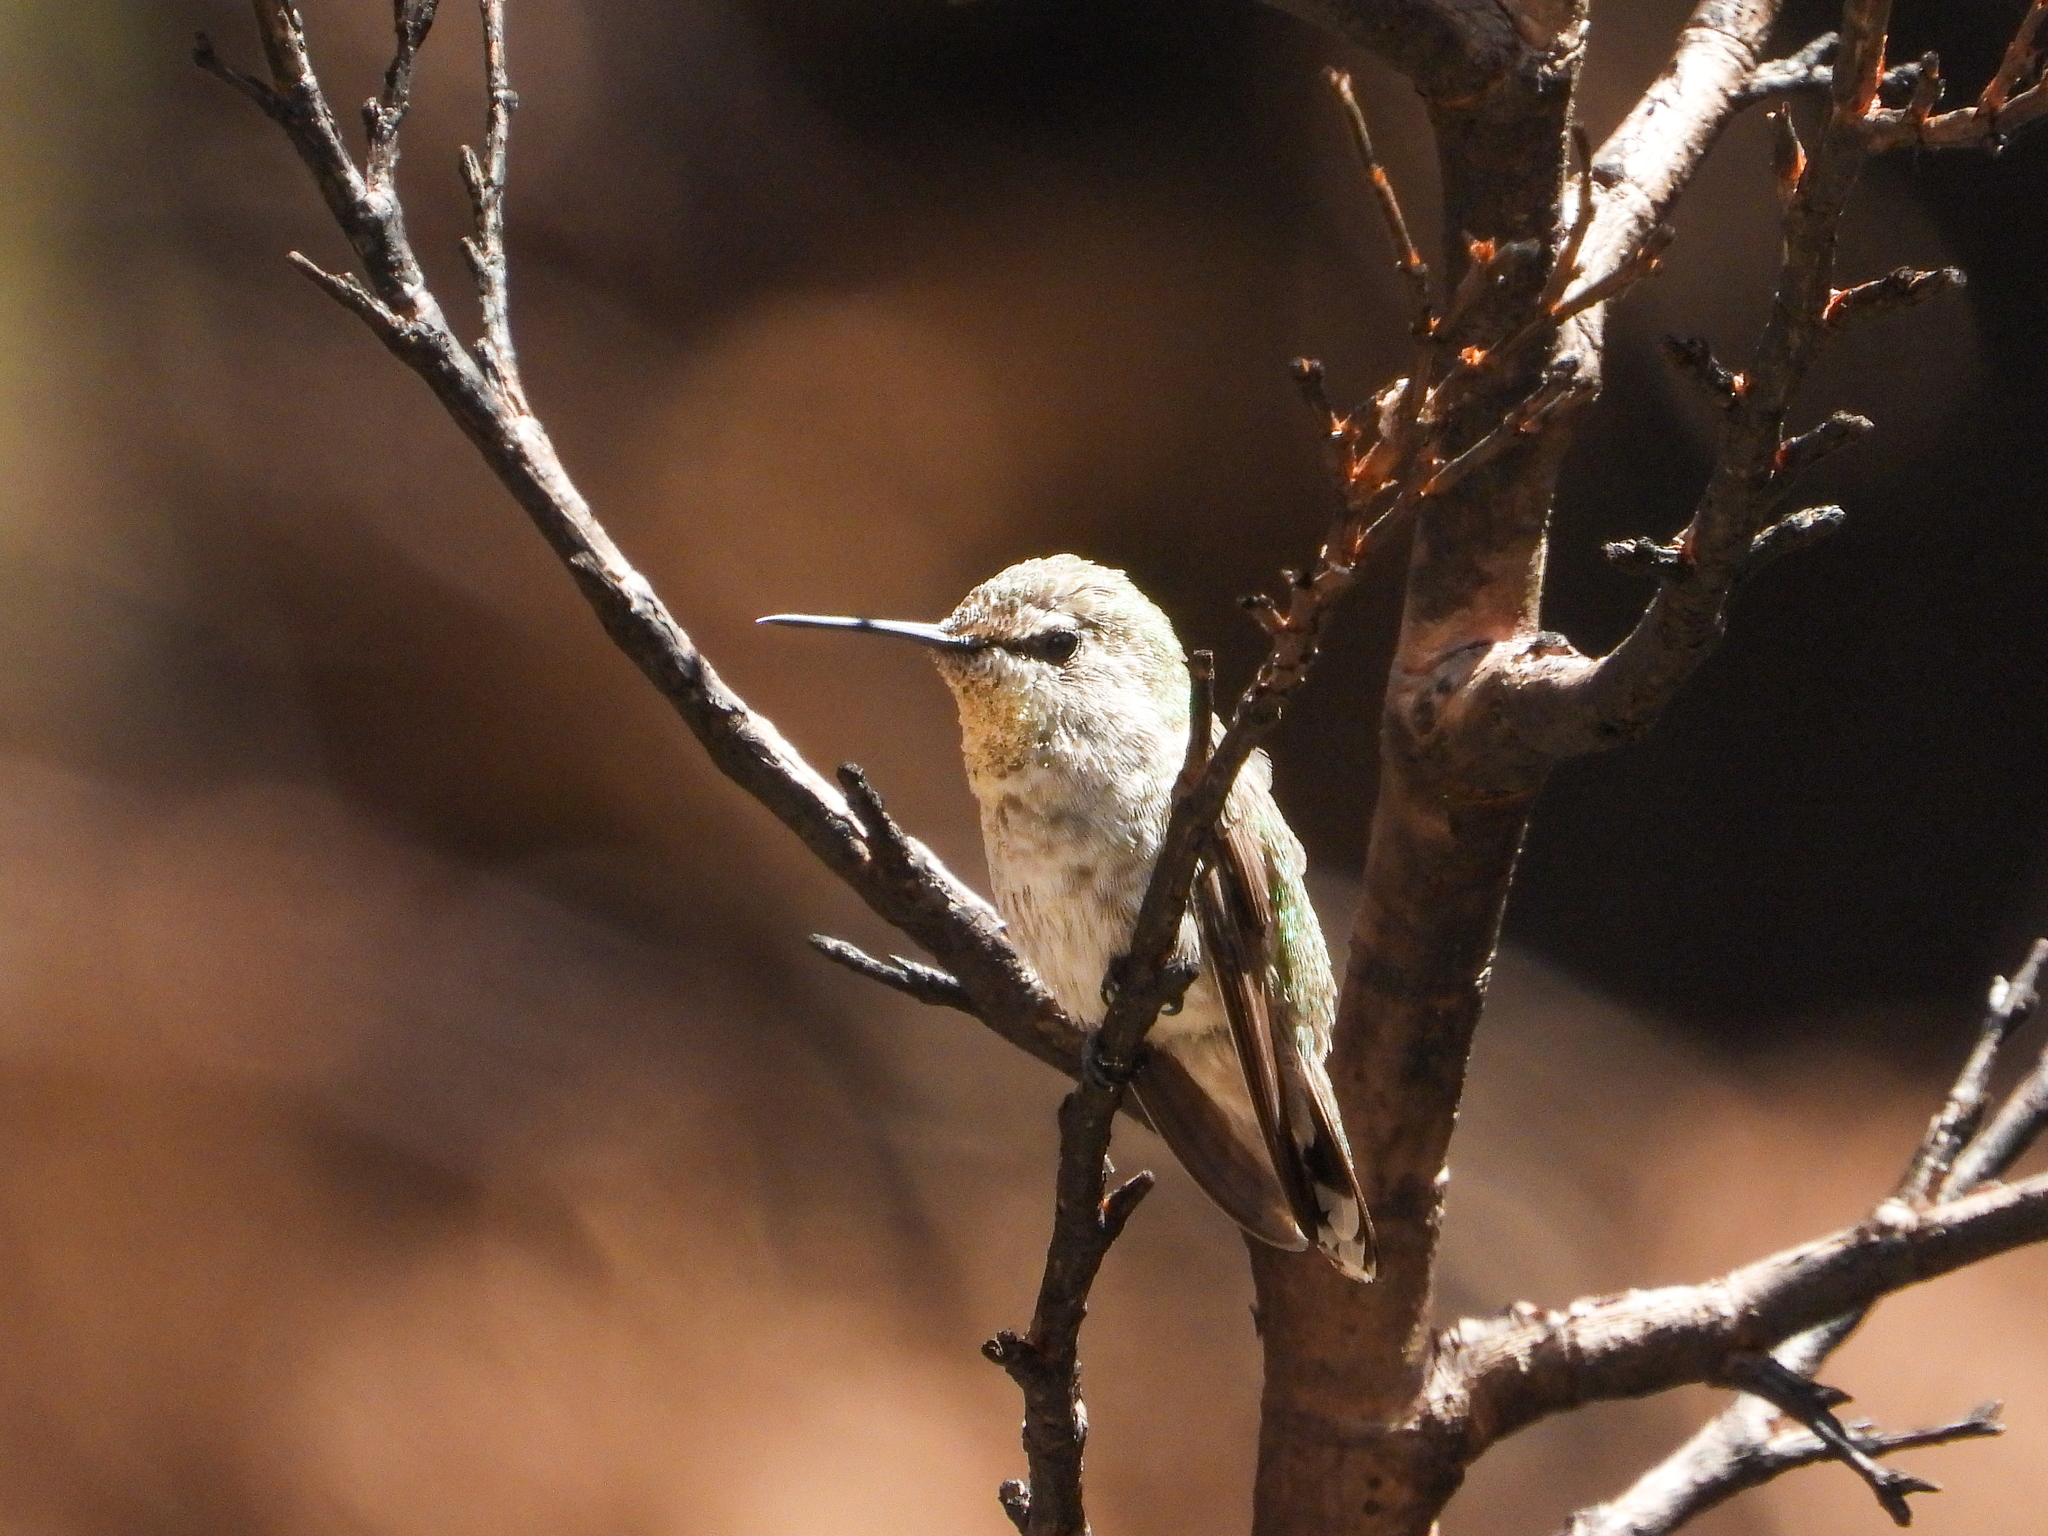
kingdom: Animalia
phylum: Chordata
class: Aves
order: Apodiformes
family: Trochilidae
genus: Calypte
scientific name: Calypte costae
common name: Costa's hummingbird
